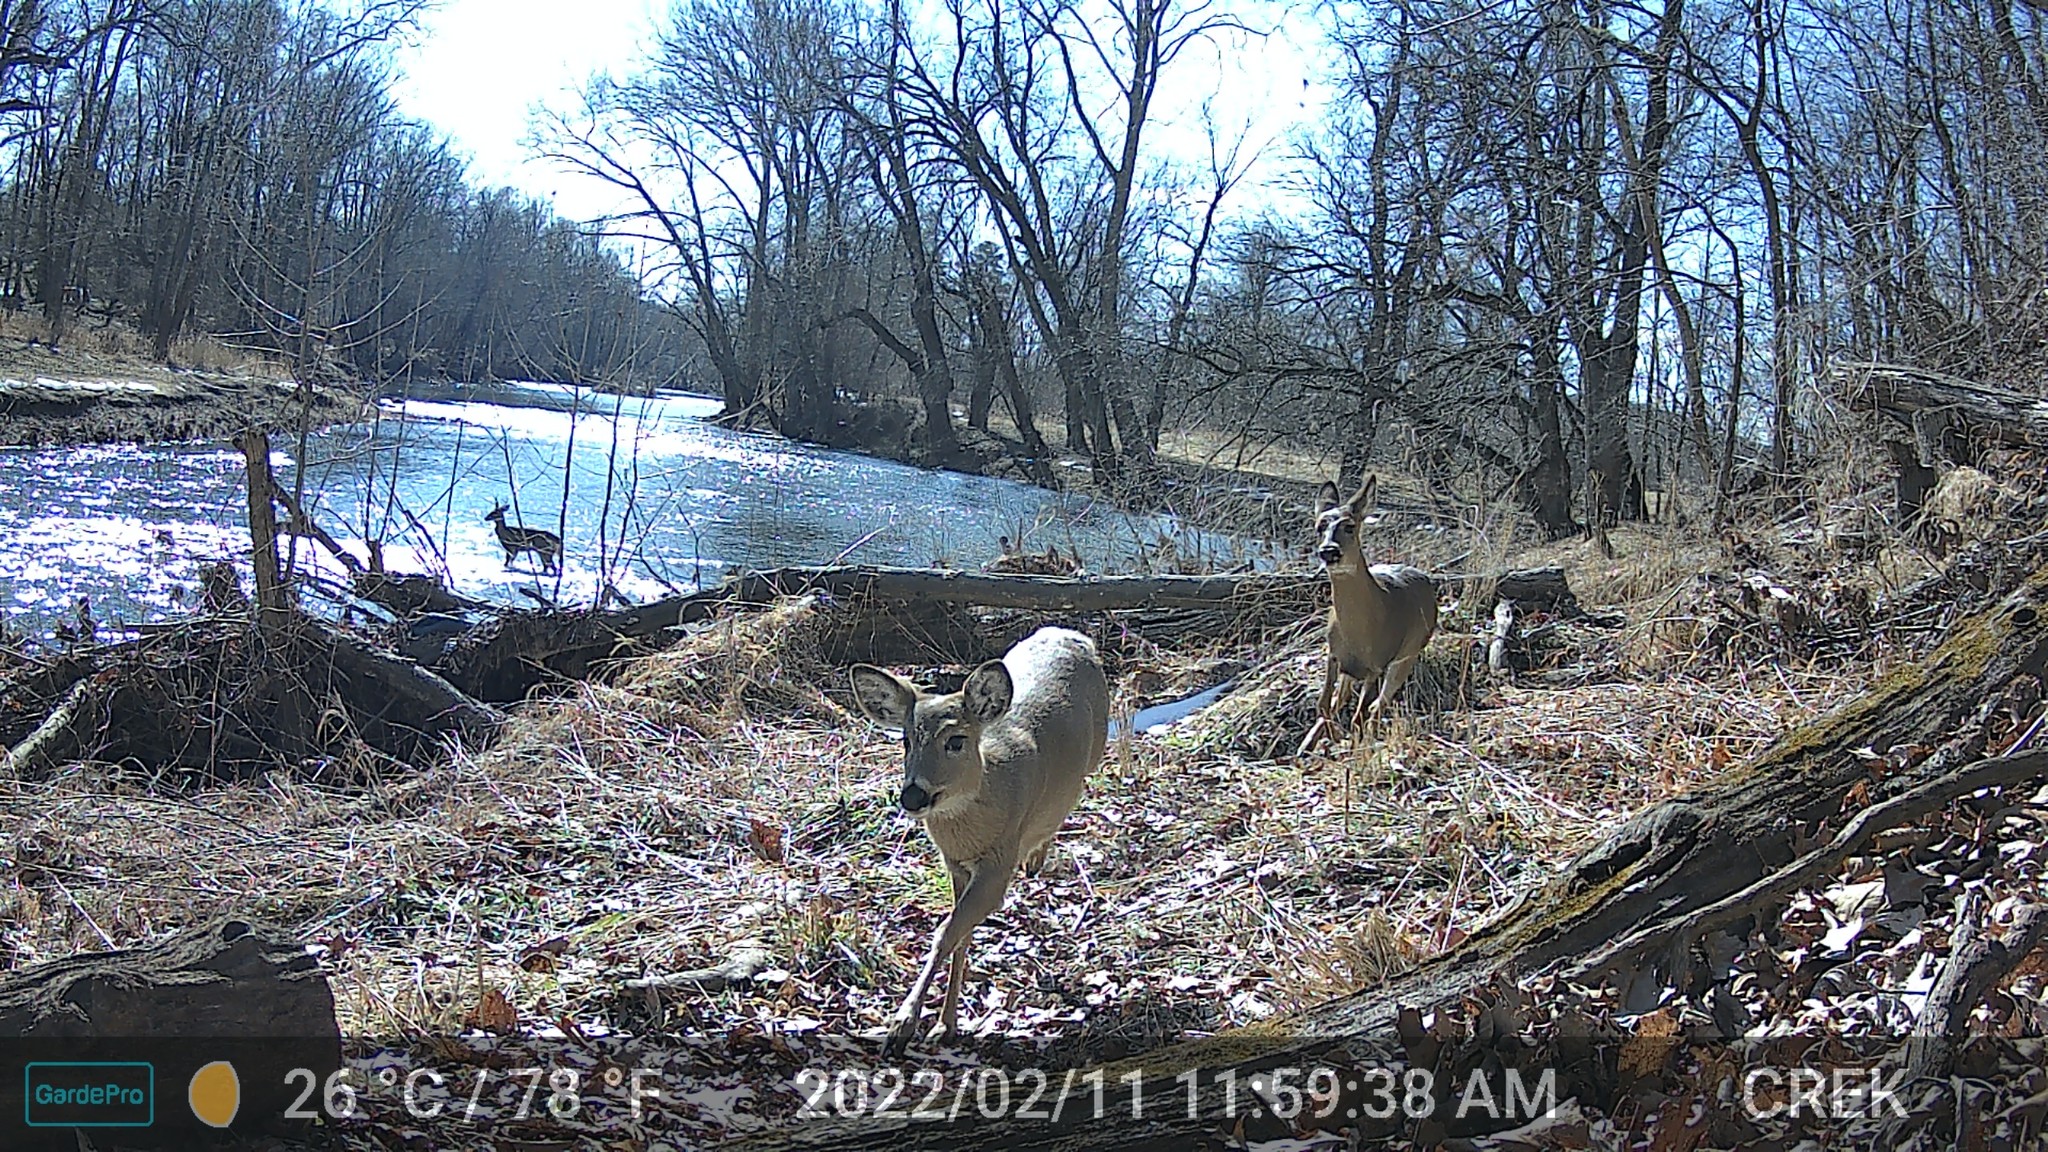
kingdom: Animalia
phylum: Chordata
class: Mammalia
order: Artiodactyla
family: Cervidae
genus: Odocoileus
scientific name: Odocoileus virginianus
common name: White-tailed deer
